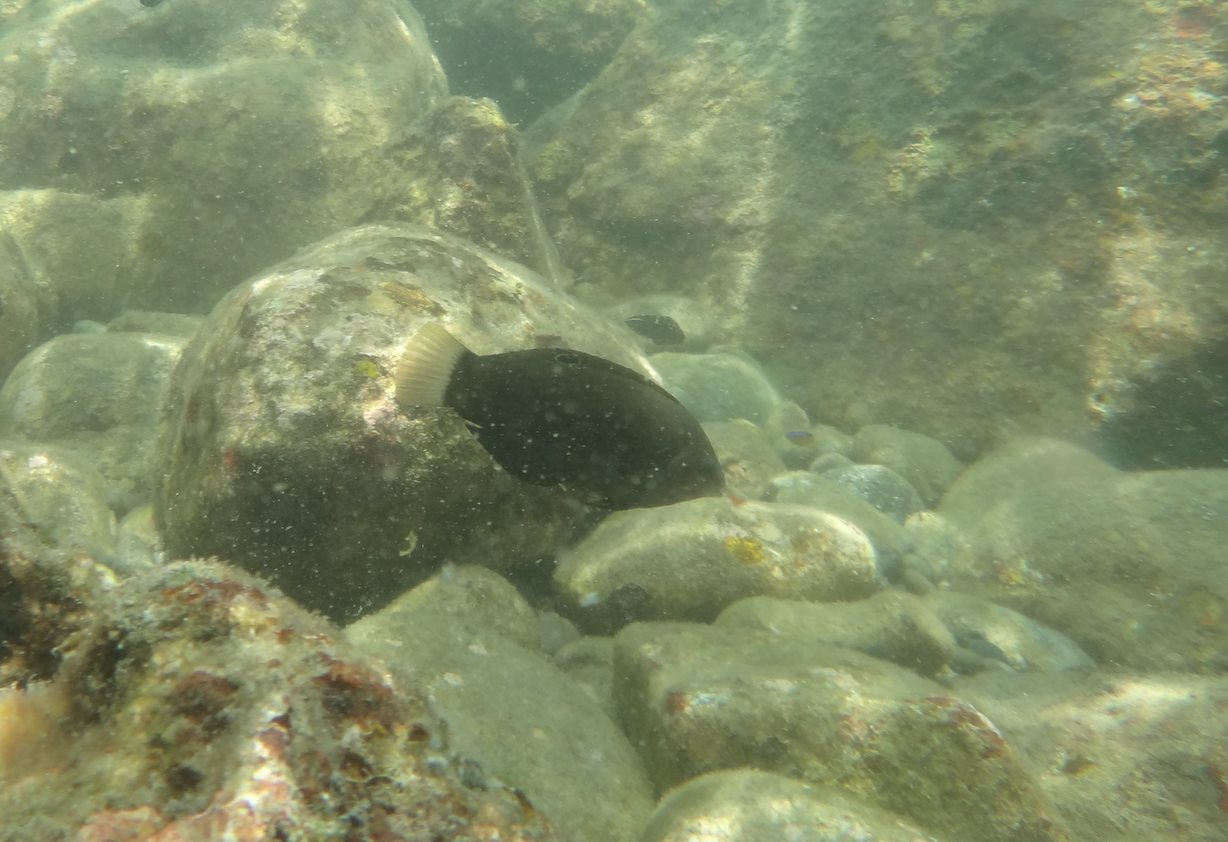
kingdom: Animalia
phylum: Chordata
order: Perciformes
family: Labridae
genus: Halichoeres
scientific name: Halichoeres
